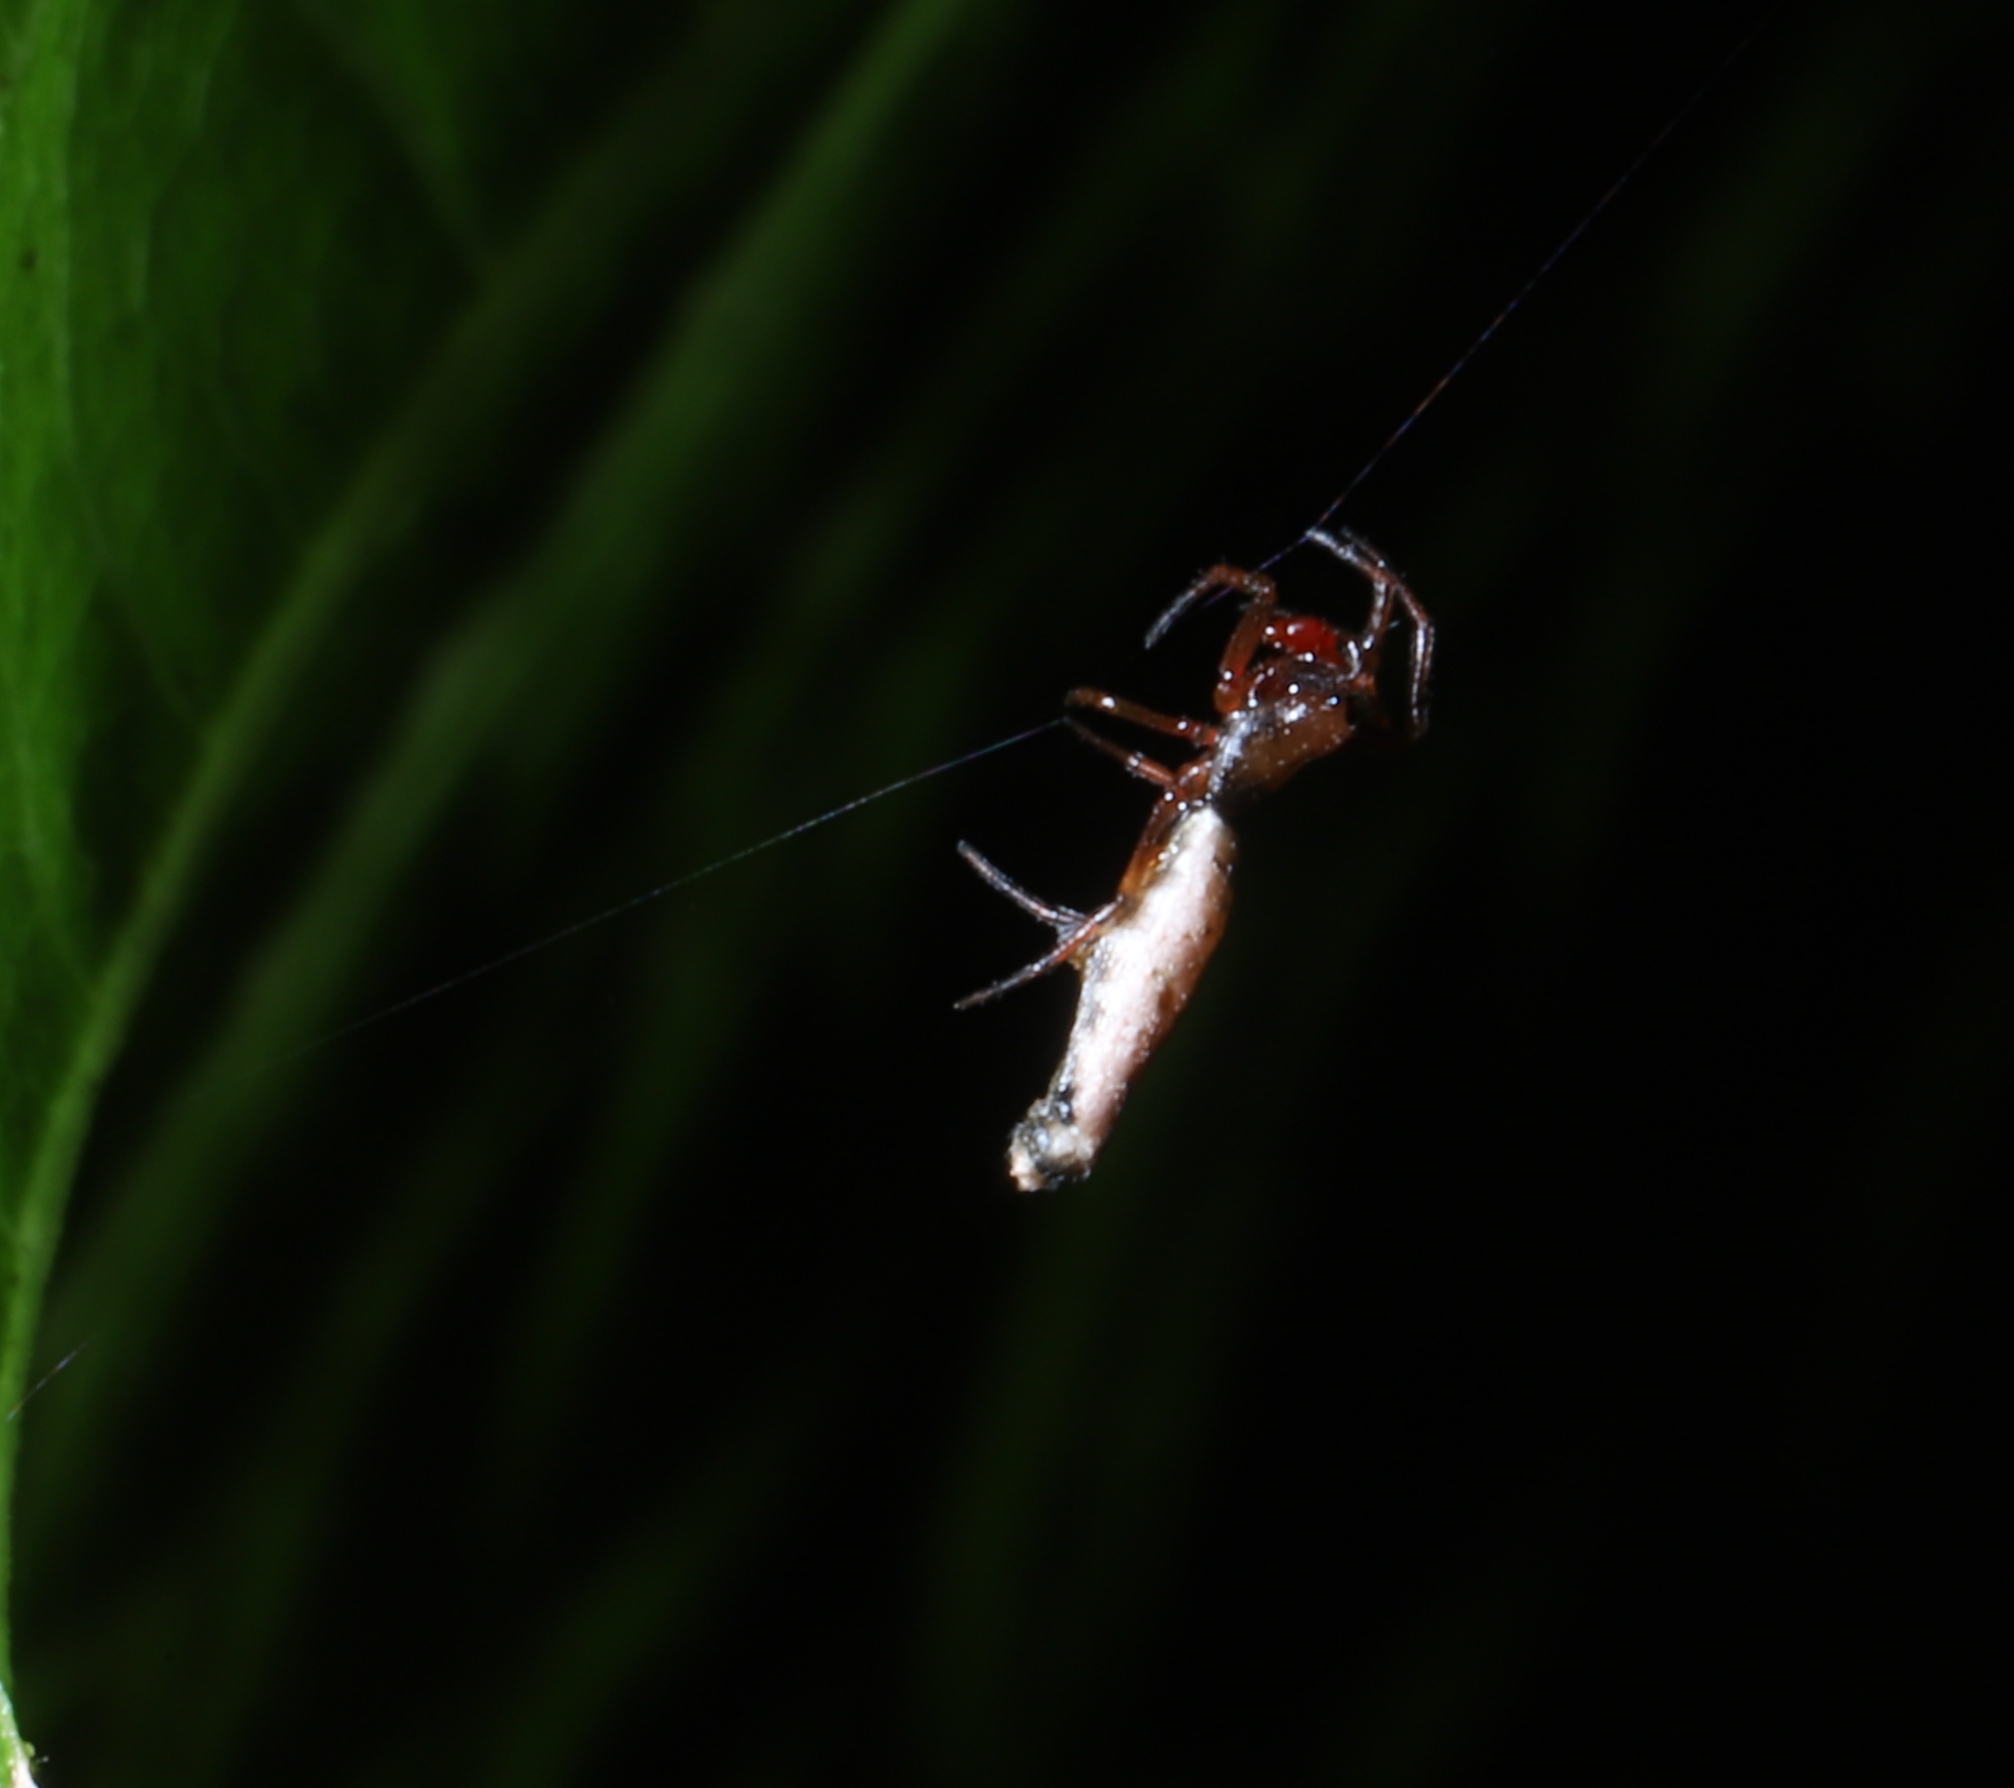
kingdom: Animalia
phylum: Arthropoda
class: Arachnida
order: Araneae
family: Araneidae
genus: Micrathena
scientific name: Micrathena gracilis
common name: Orb weavers
